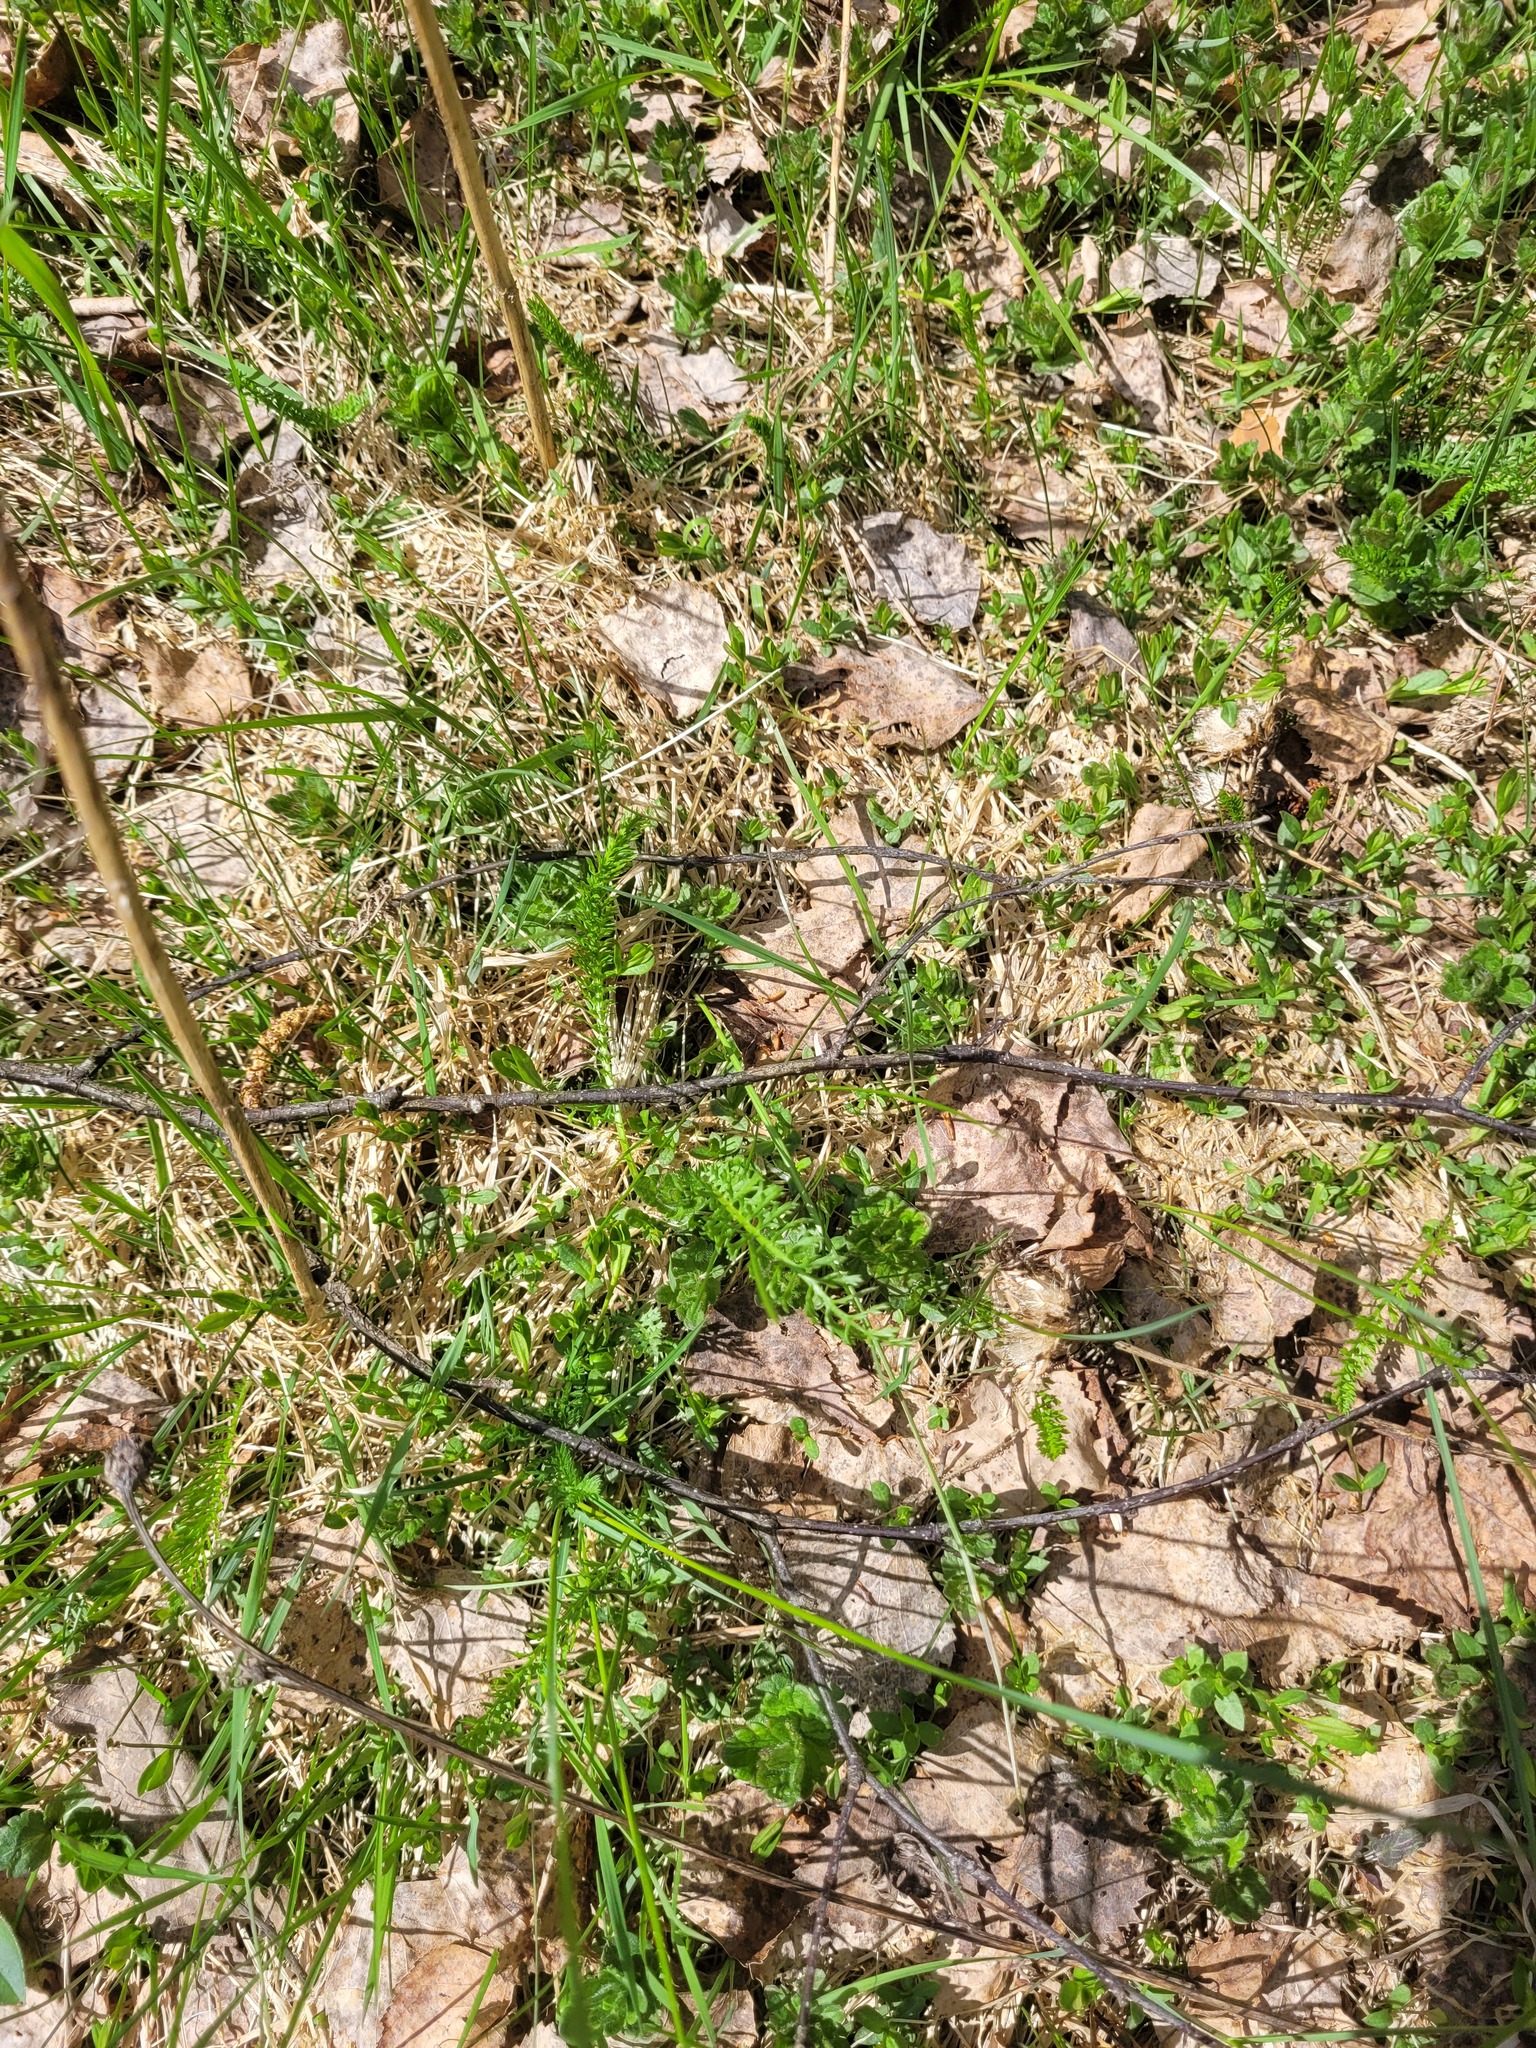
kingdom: Plantae
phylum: Tracheophyta
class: Magnoliopsida
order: Asterales
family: Asteraceae
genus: Achillea
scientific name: Achillea millefolium
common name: Yarrow
